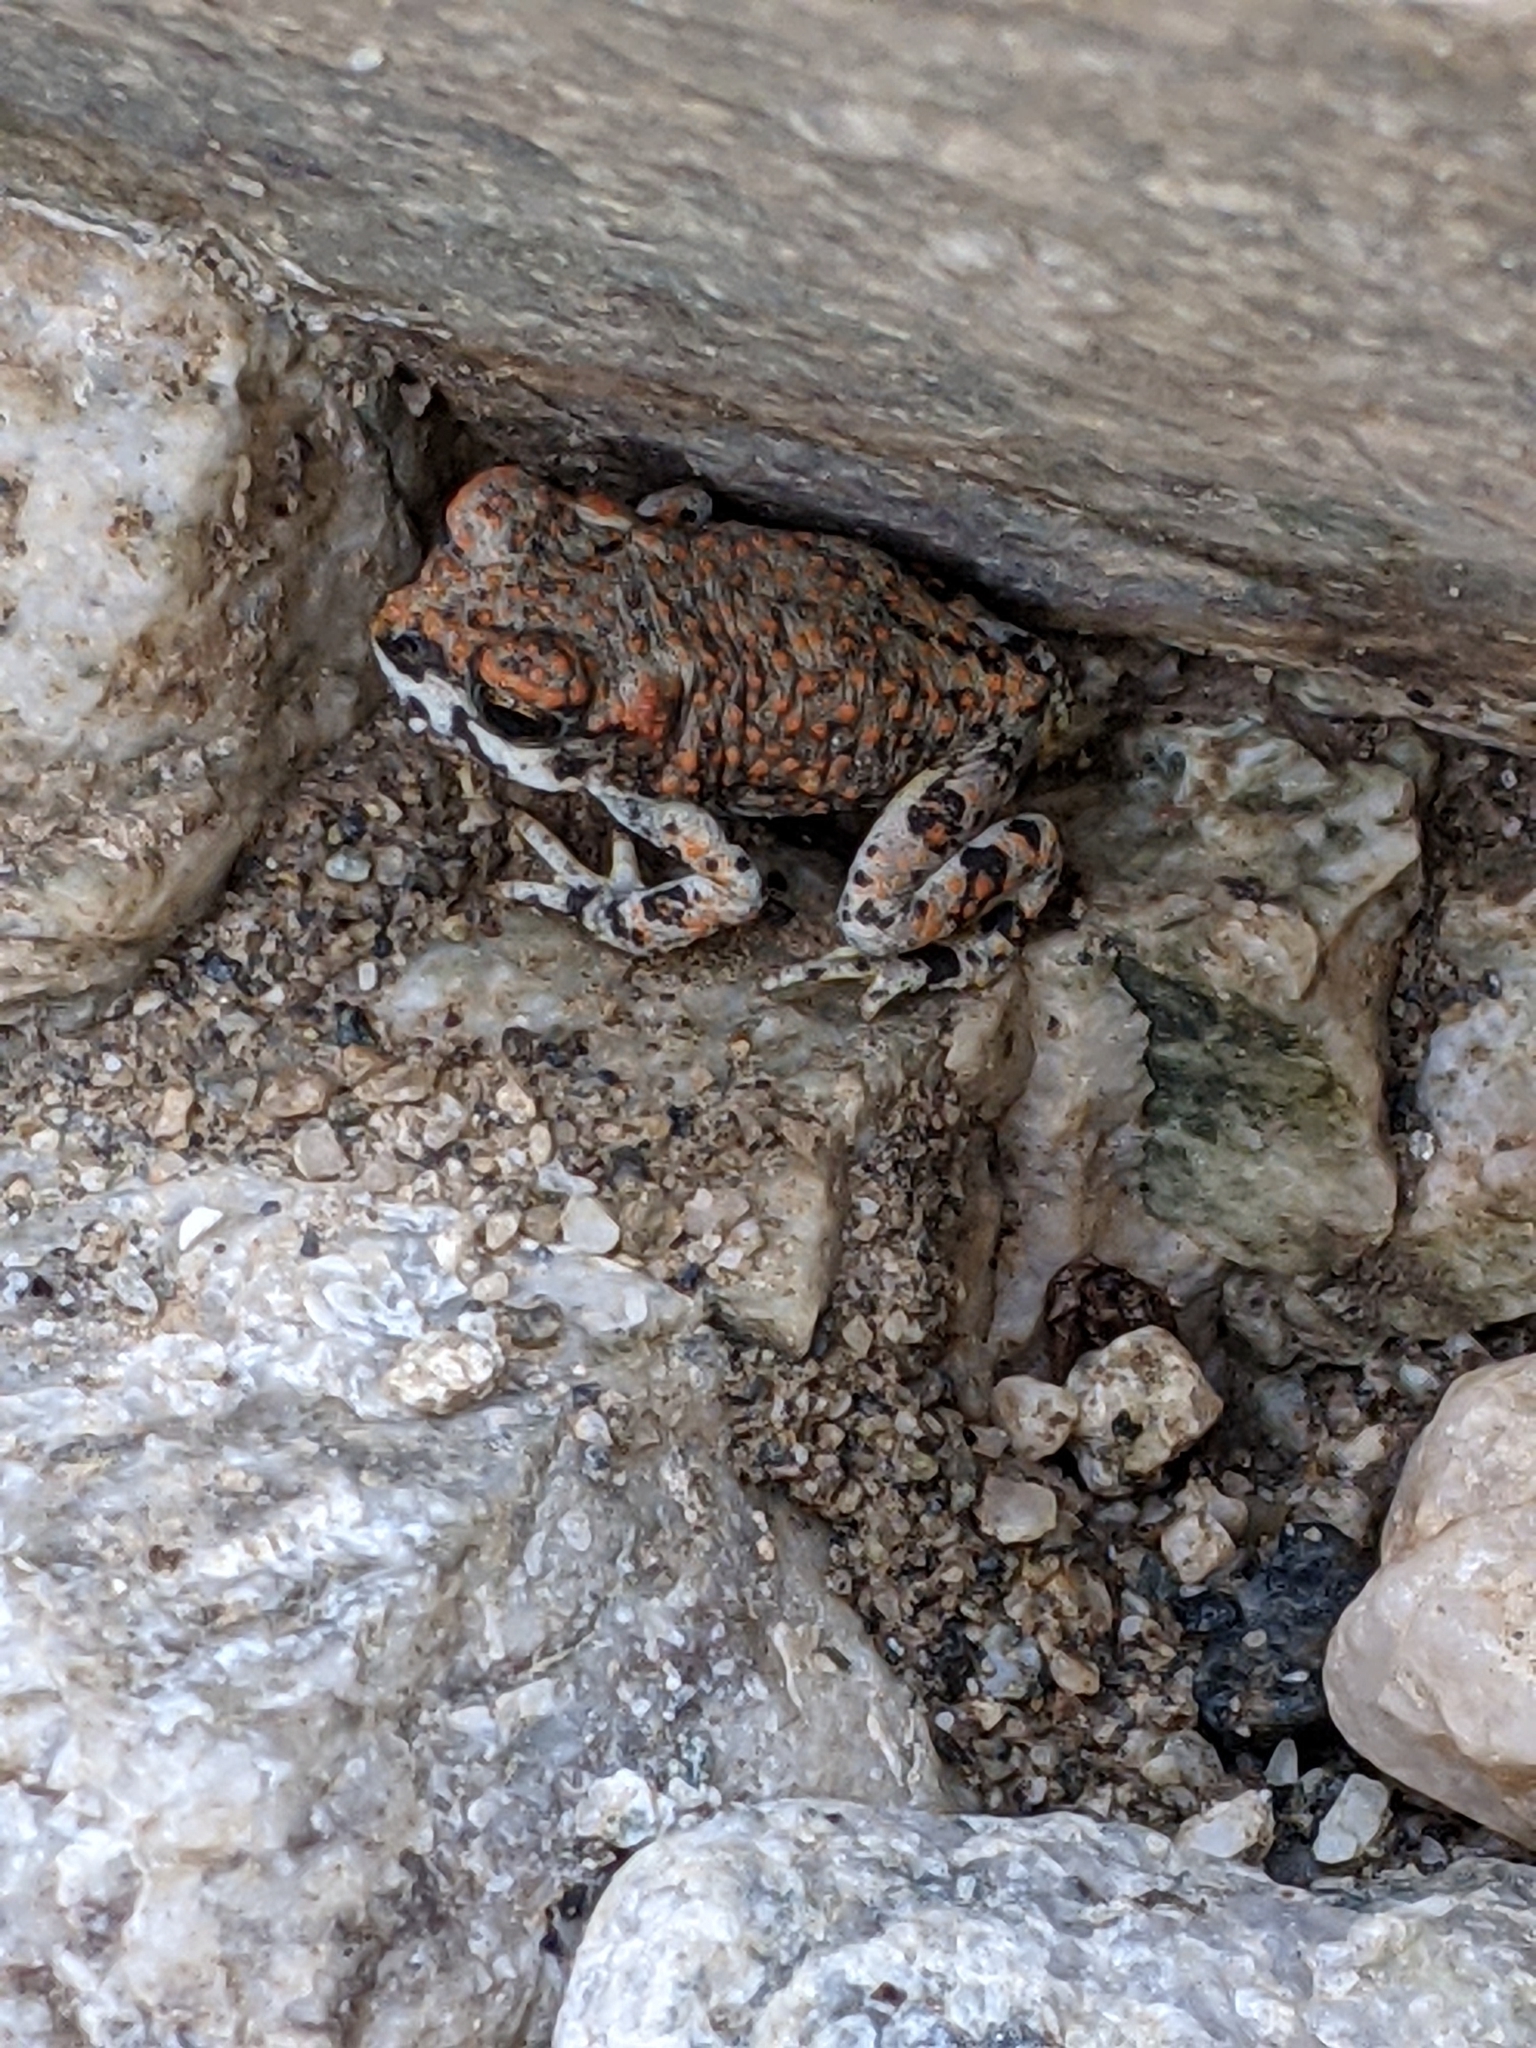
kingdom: Animalia
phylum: Chordata
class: Amphibia
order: Anura
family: Bufonidae
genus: Anaxyrus
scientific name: Anaxyrus punctatus
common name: Red-spotted toad
